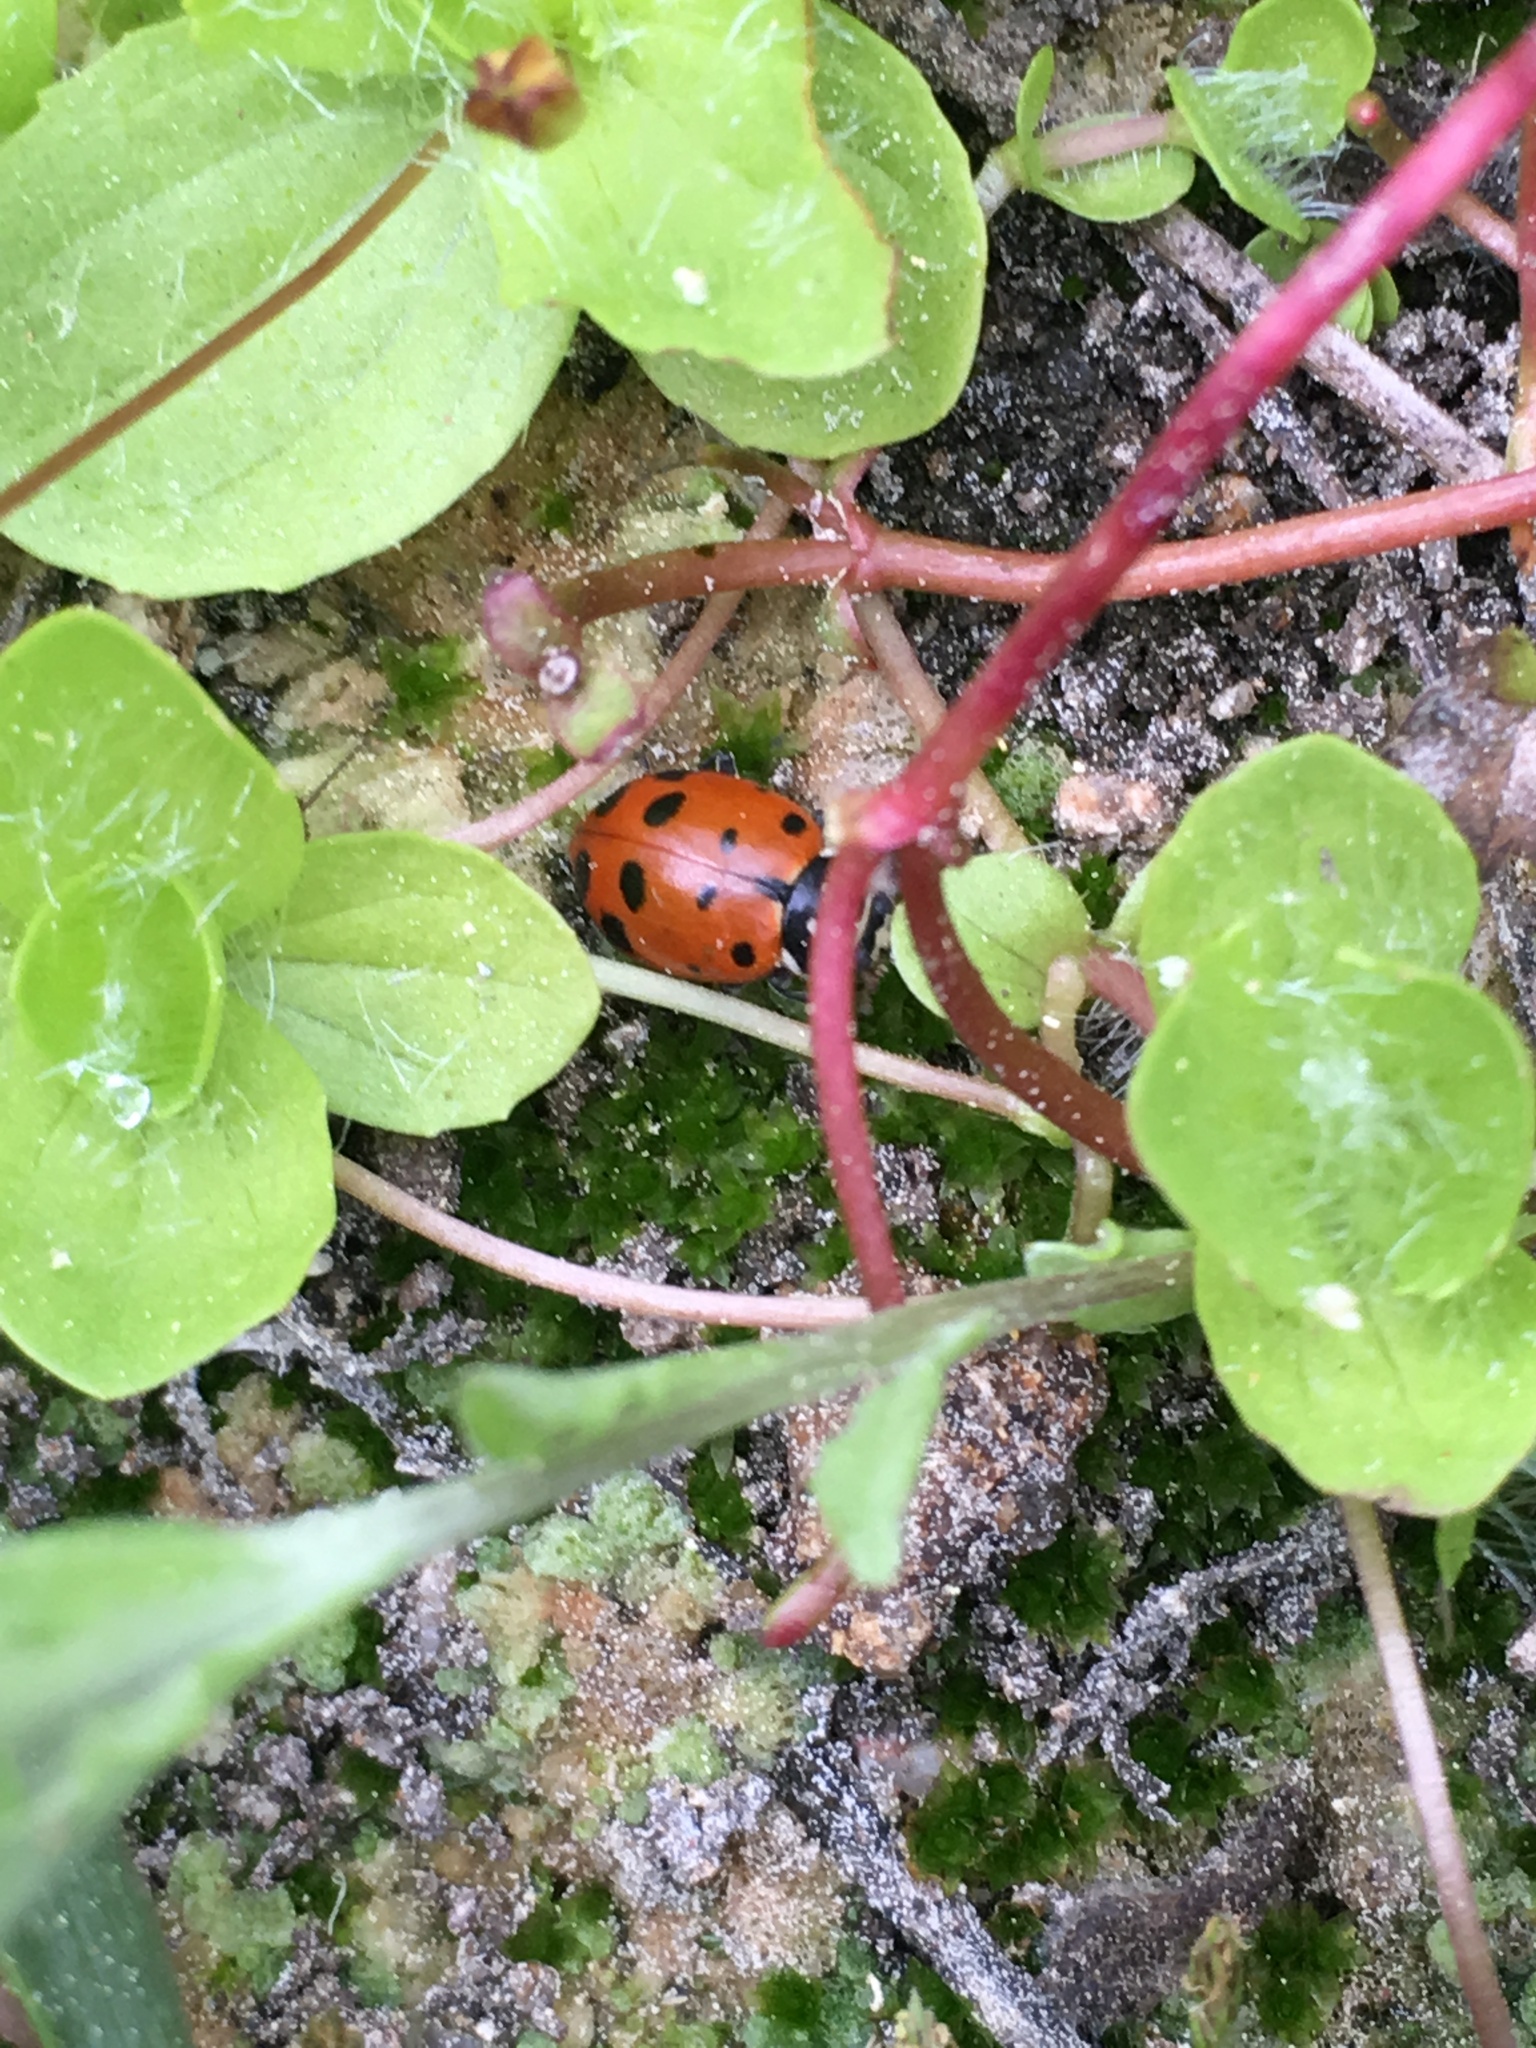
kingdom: Animalia
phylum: Arthropoda
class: Insecta
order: Coleoptera
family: Coccinellidae
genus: Hippodamia
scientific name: Hippodamia convergens
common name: Convergent lady beetle
